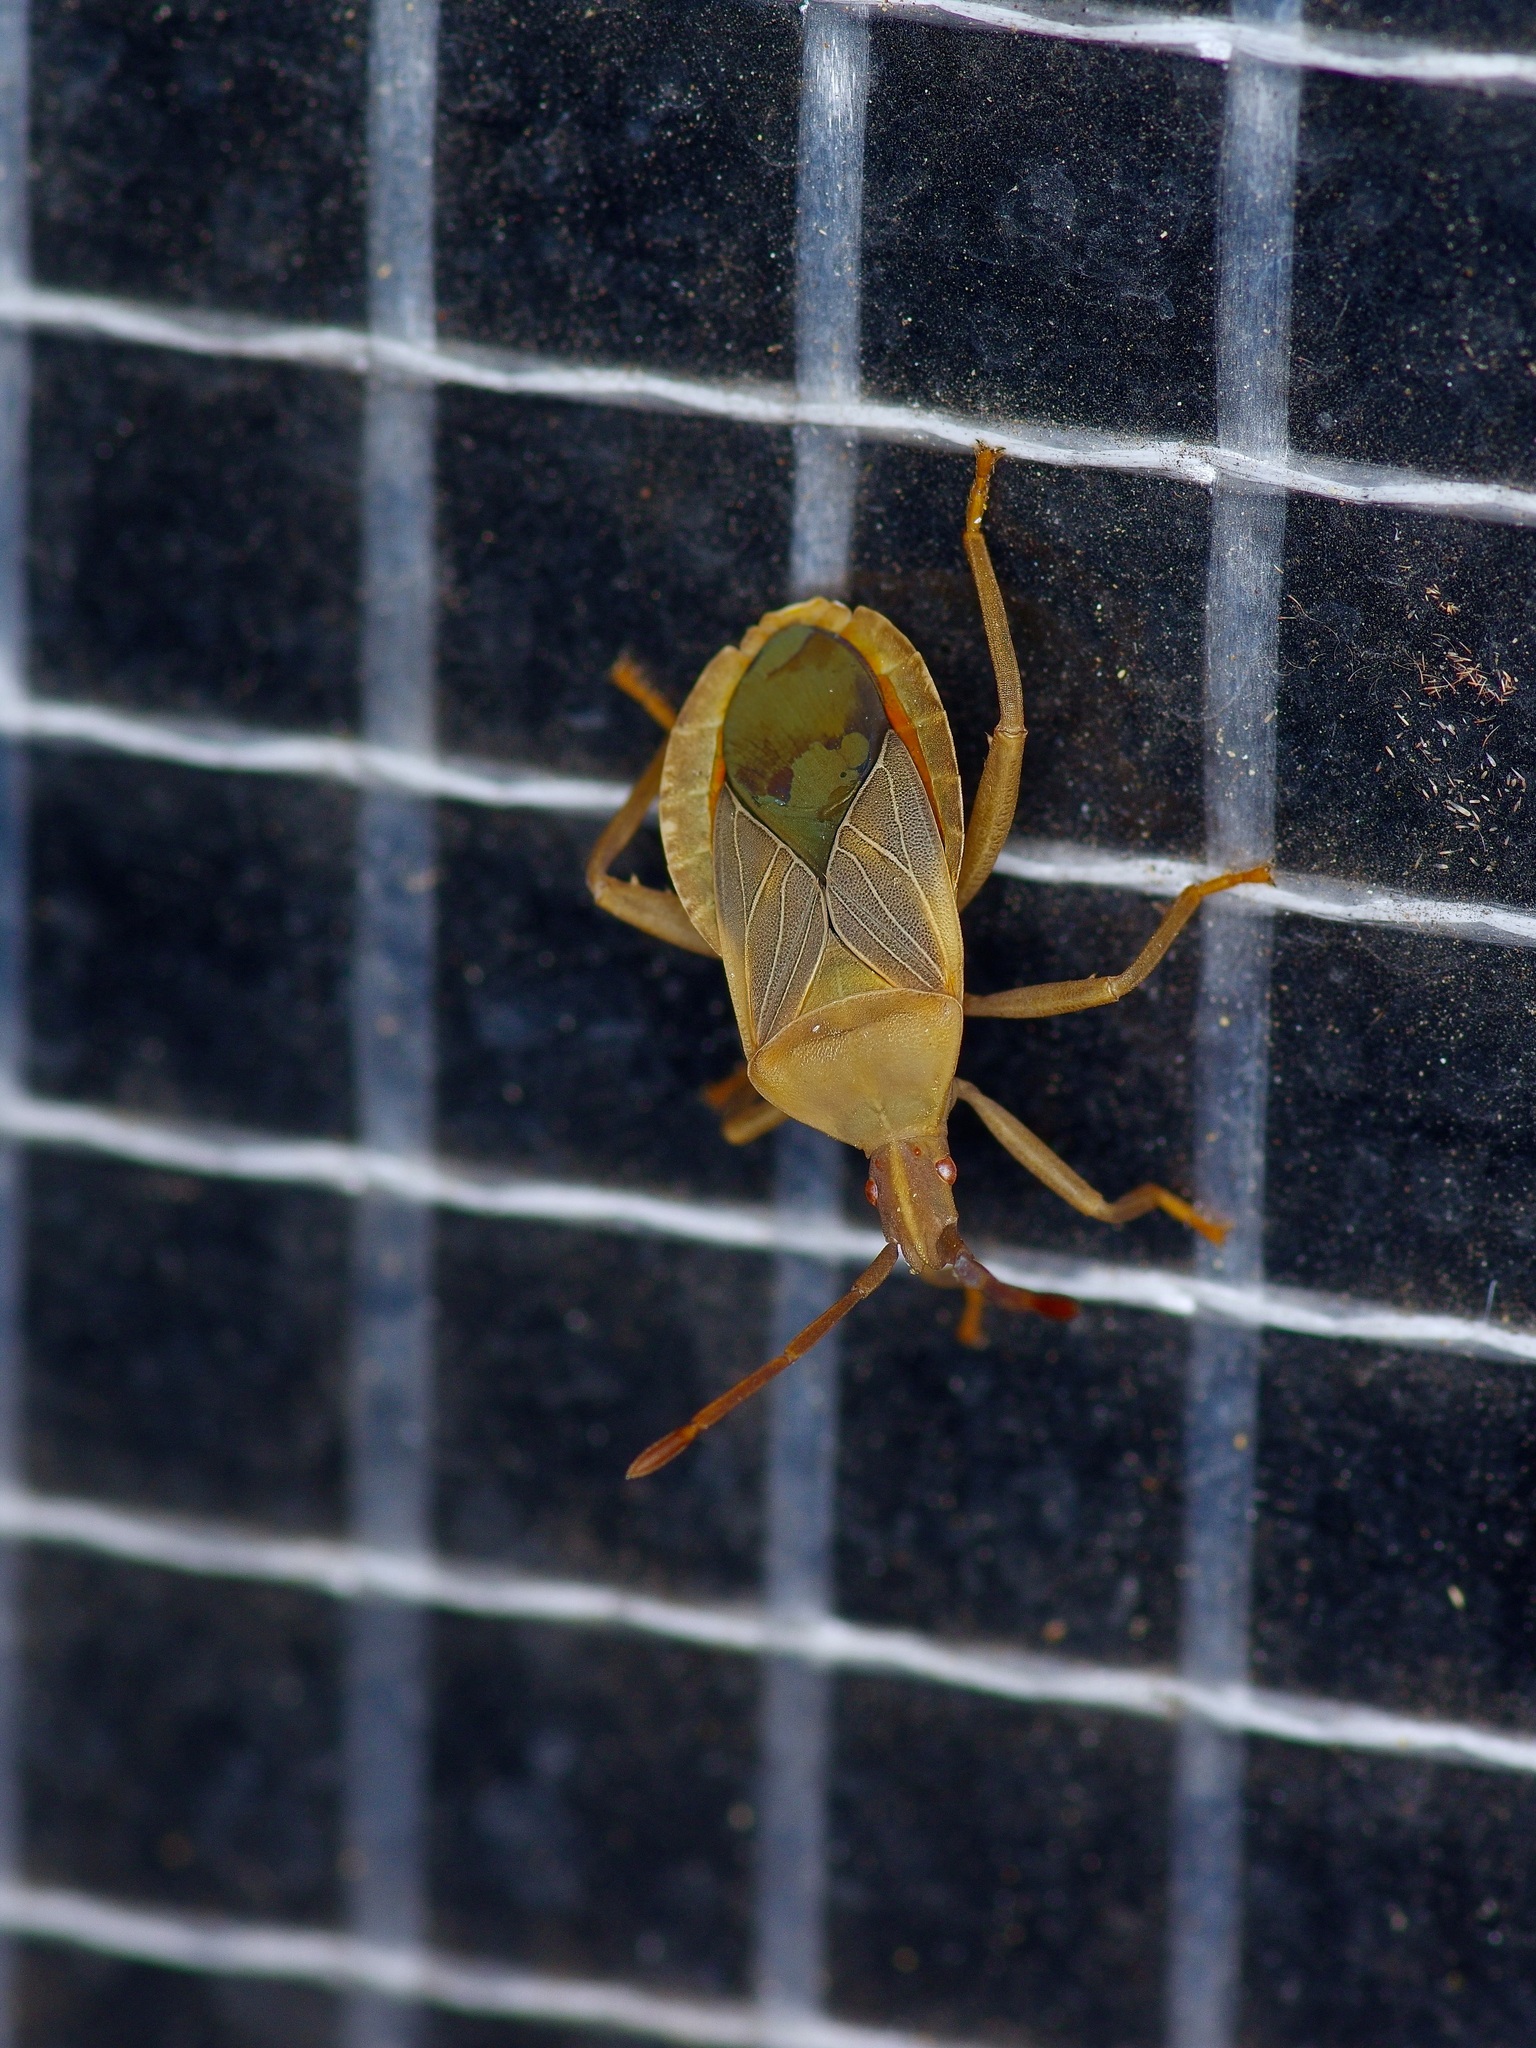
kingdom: Animalia
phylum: Arthropoda
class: Insecta
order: Hemiptera
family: Coreidae
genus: Chelinidea
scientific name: Chelinidea vittiger
